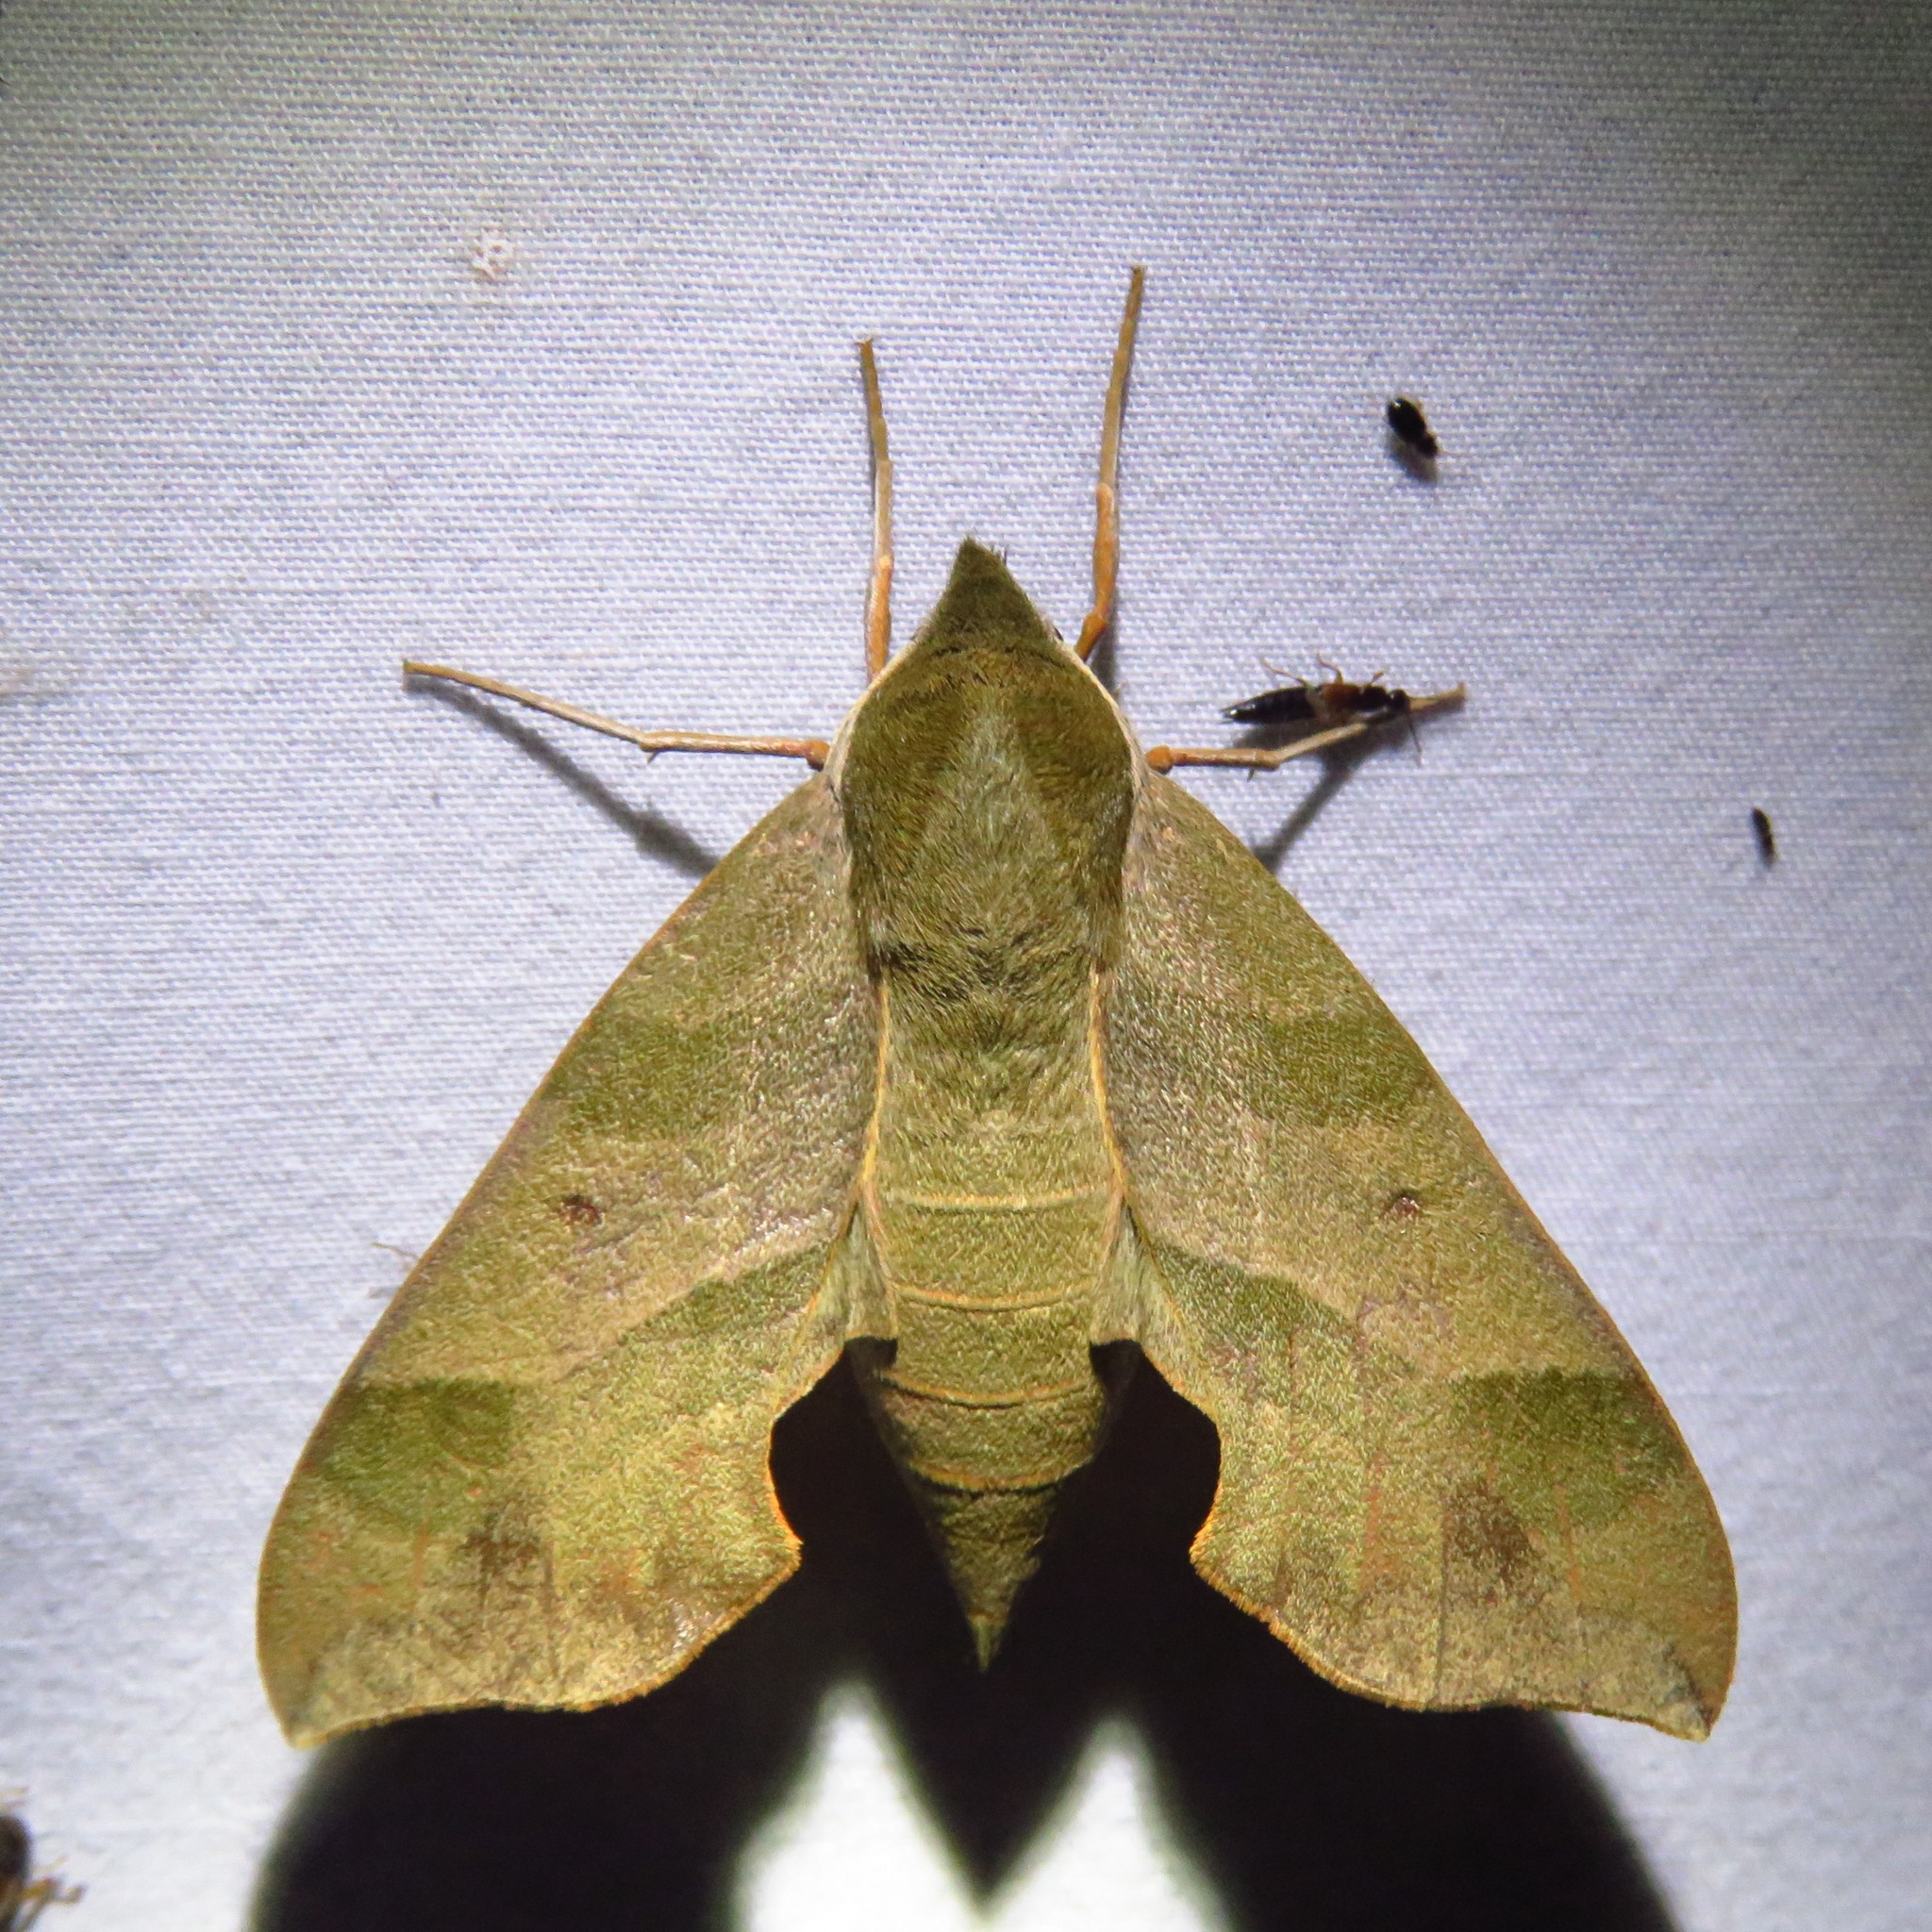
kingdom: Animalia
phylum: Arthropoda
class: Insecta
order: Lepidoptera
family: Sphingidae
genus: Darapsa
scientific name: Darapsa myron
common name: Hog sphinx
